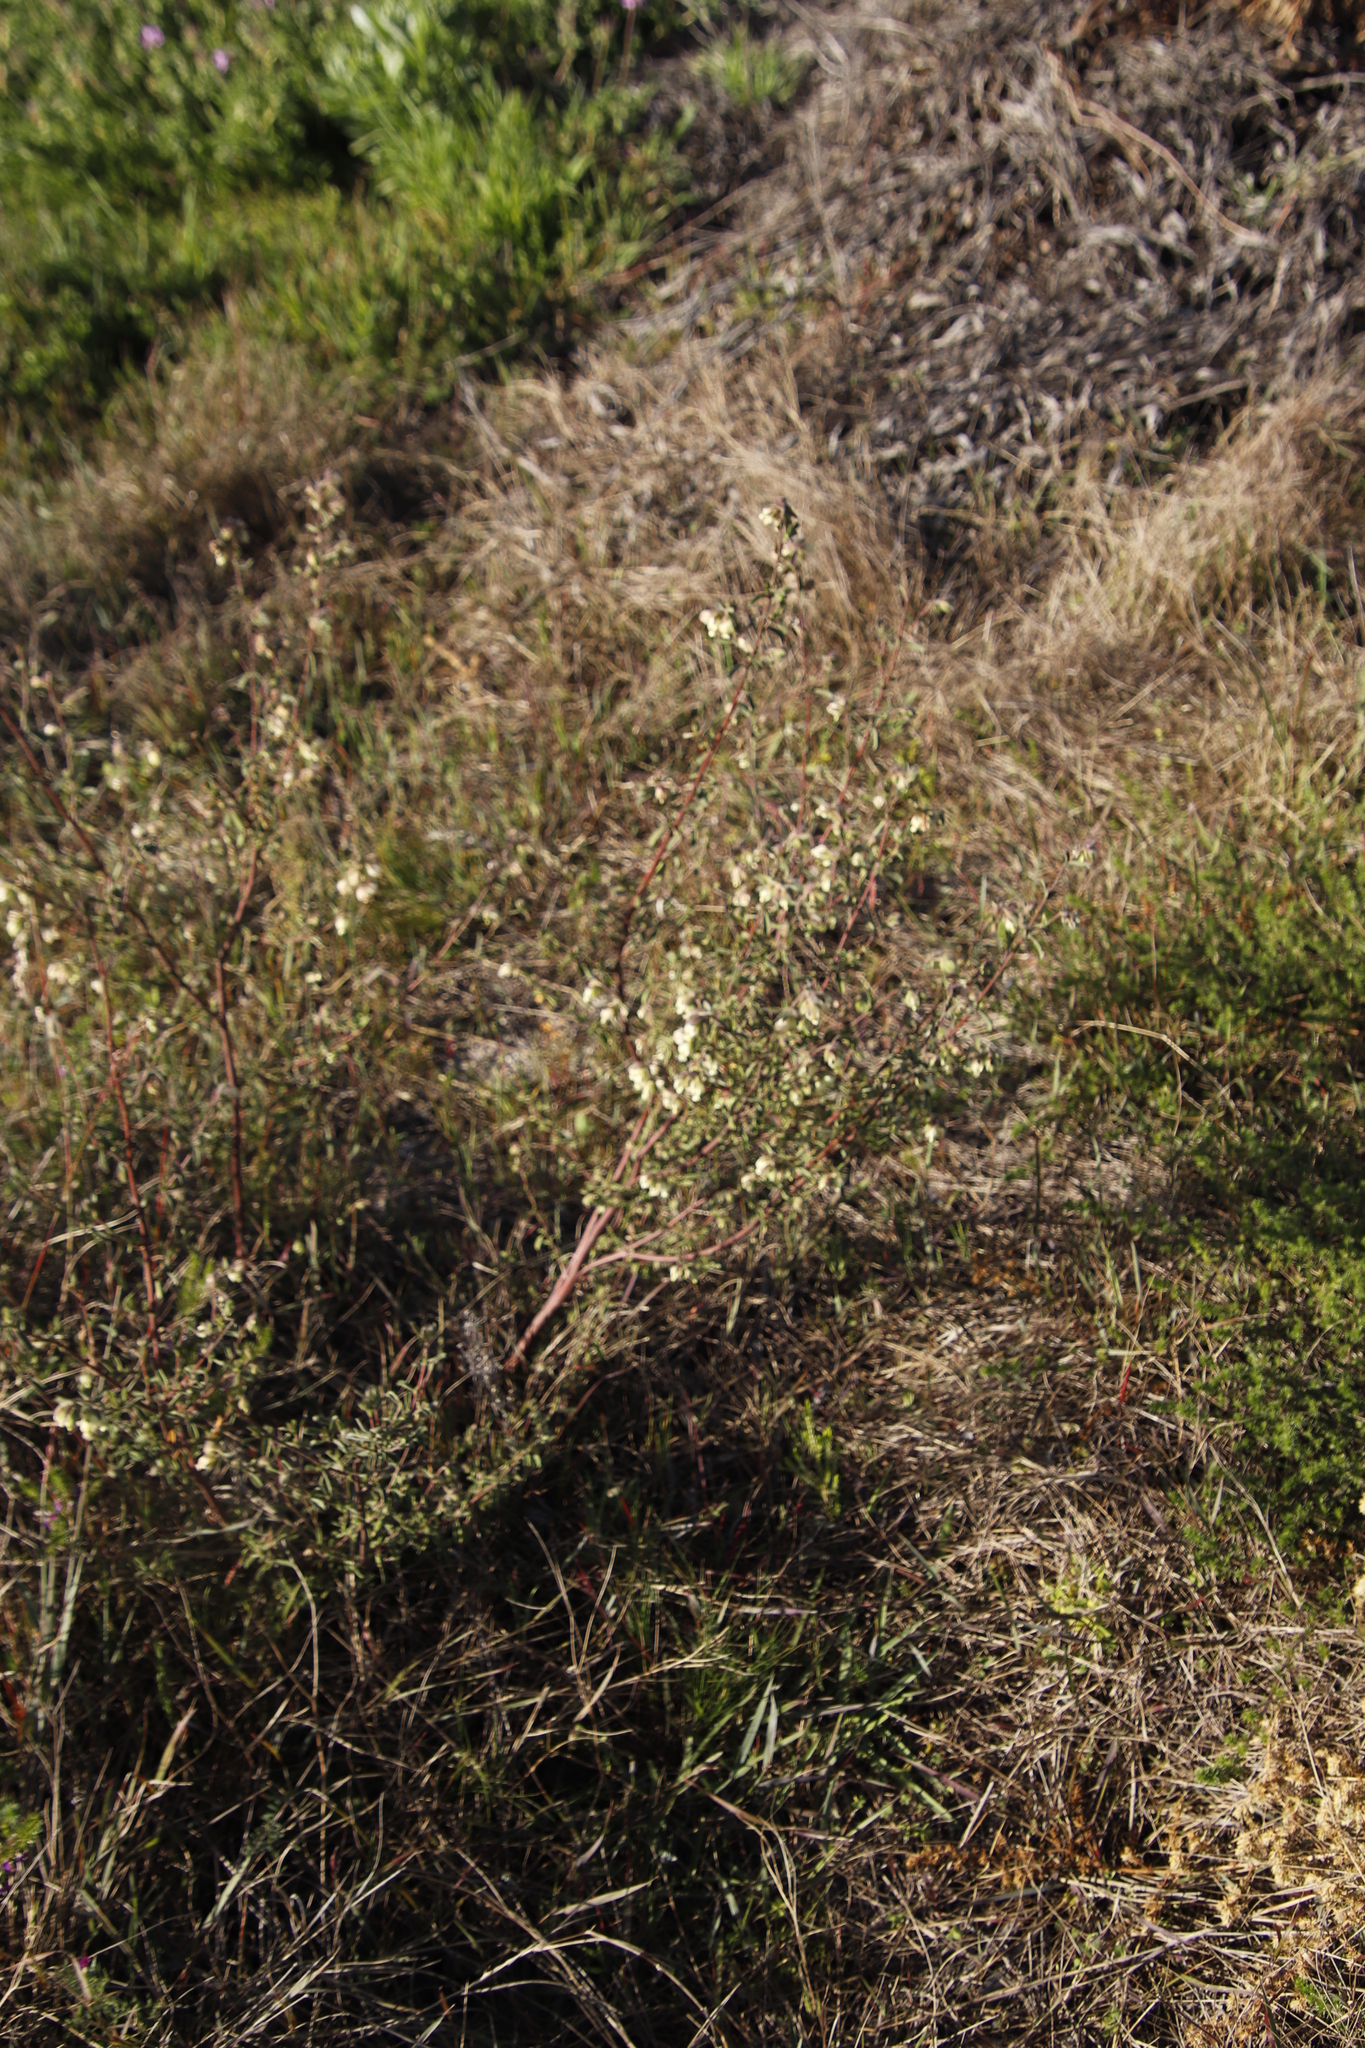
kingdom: Plantae
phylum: Tracheophyta
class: Magnoliopsida
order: Malvales
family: Malvaceae
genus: Hermannia
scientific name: Hermannia hyssopifolia
